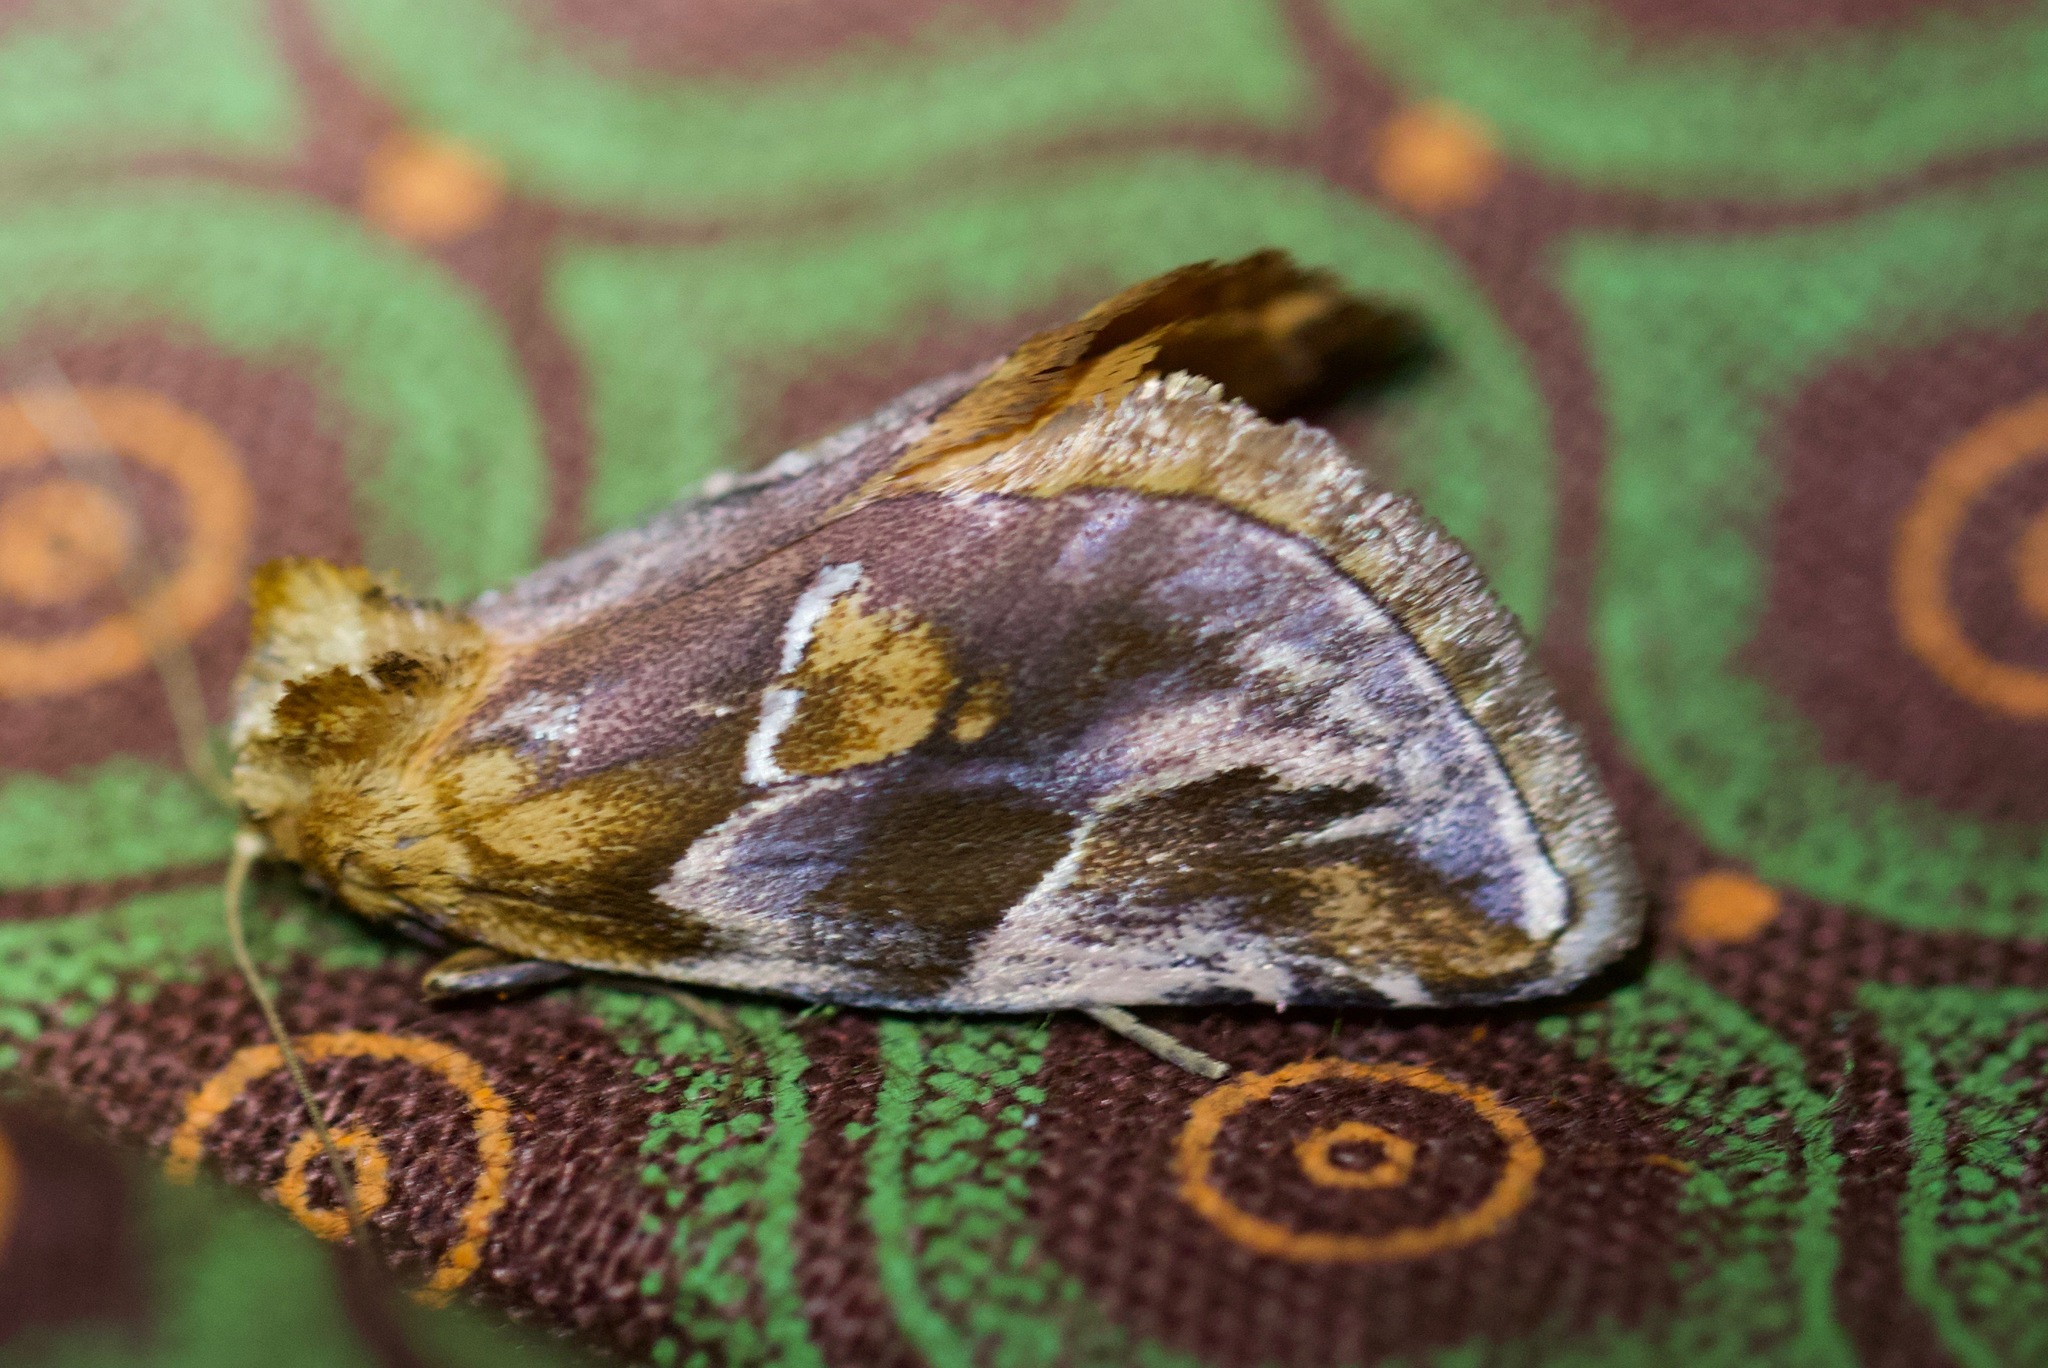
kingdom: Animalia
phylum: Arthropoda
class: Insecta
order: Lepidoptera
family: Limacodidae
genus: Crothaema
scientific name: Crothaema decorata
